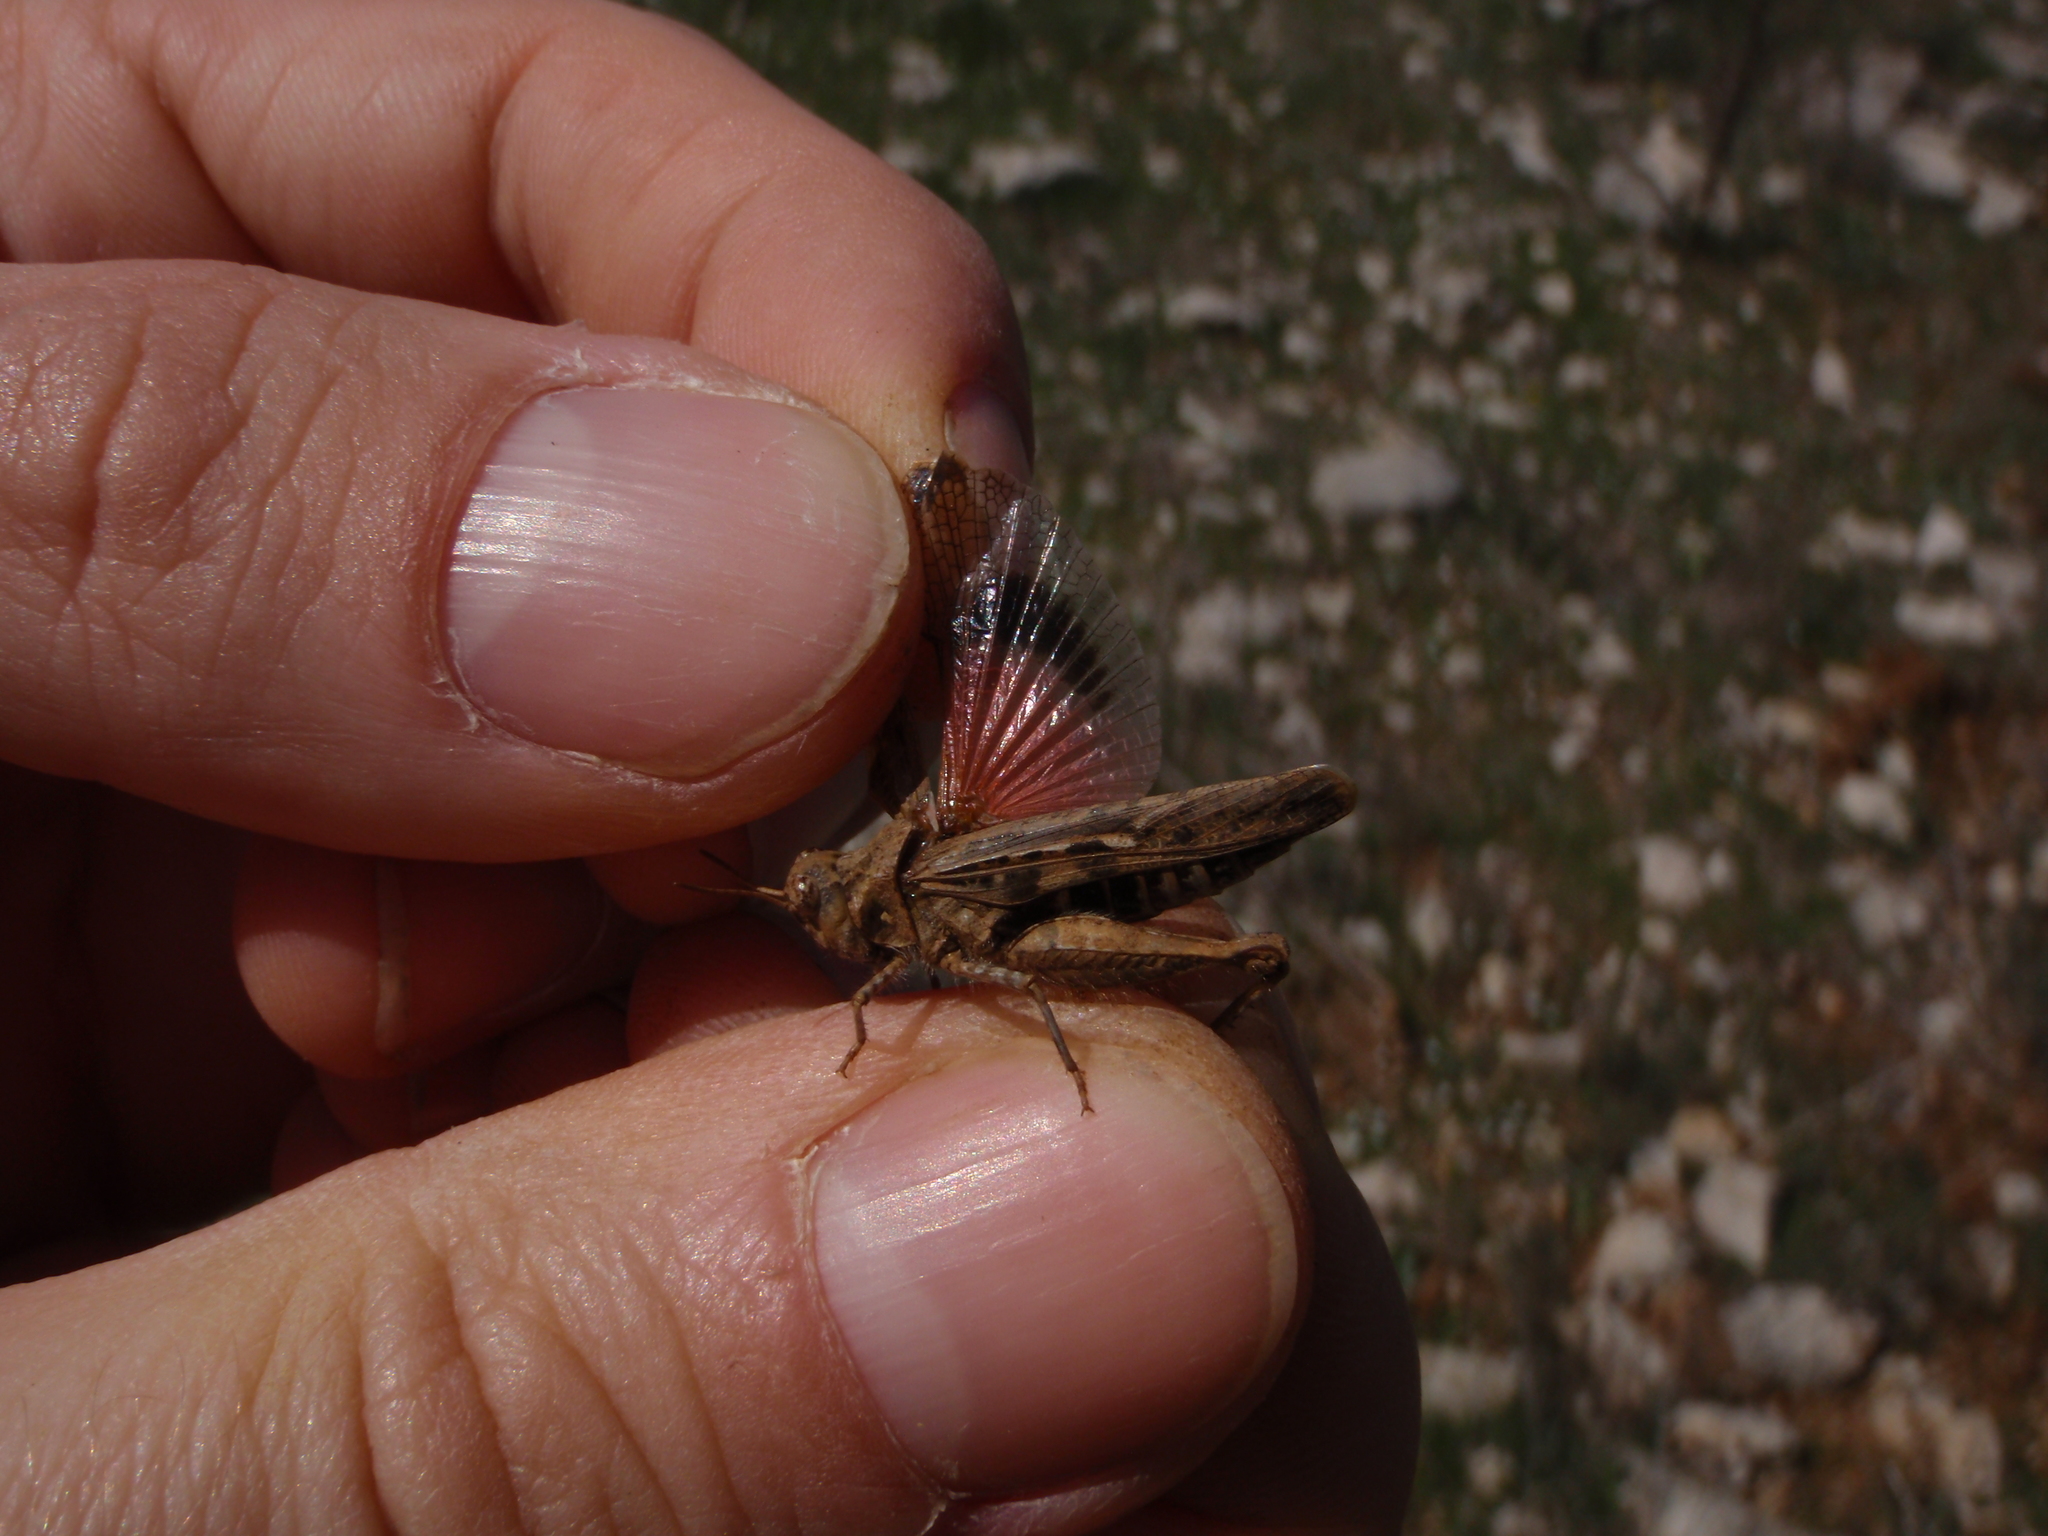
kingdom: Animalia
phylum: Arthropoda
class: Insecta
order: Orthoptera
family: Acrididae
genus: Acrotylus
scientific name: Acrotylus fischeri
